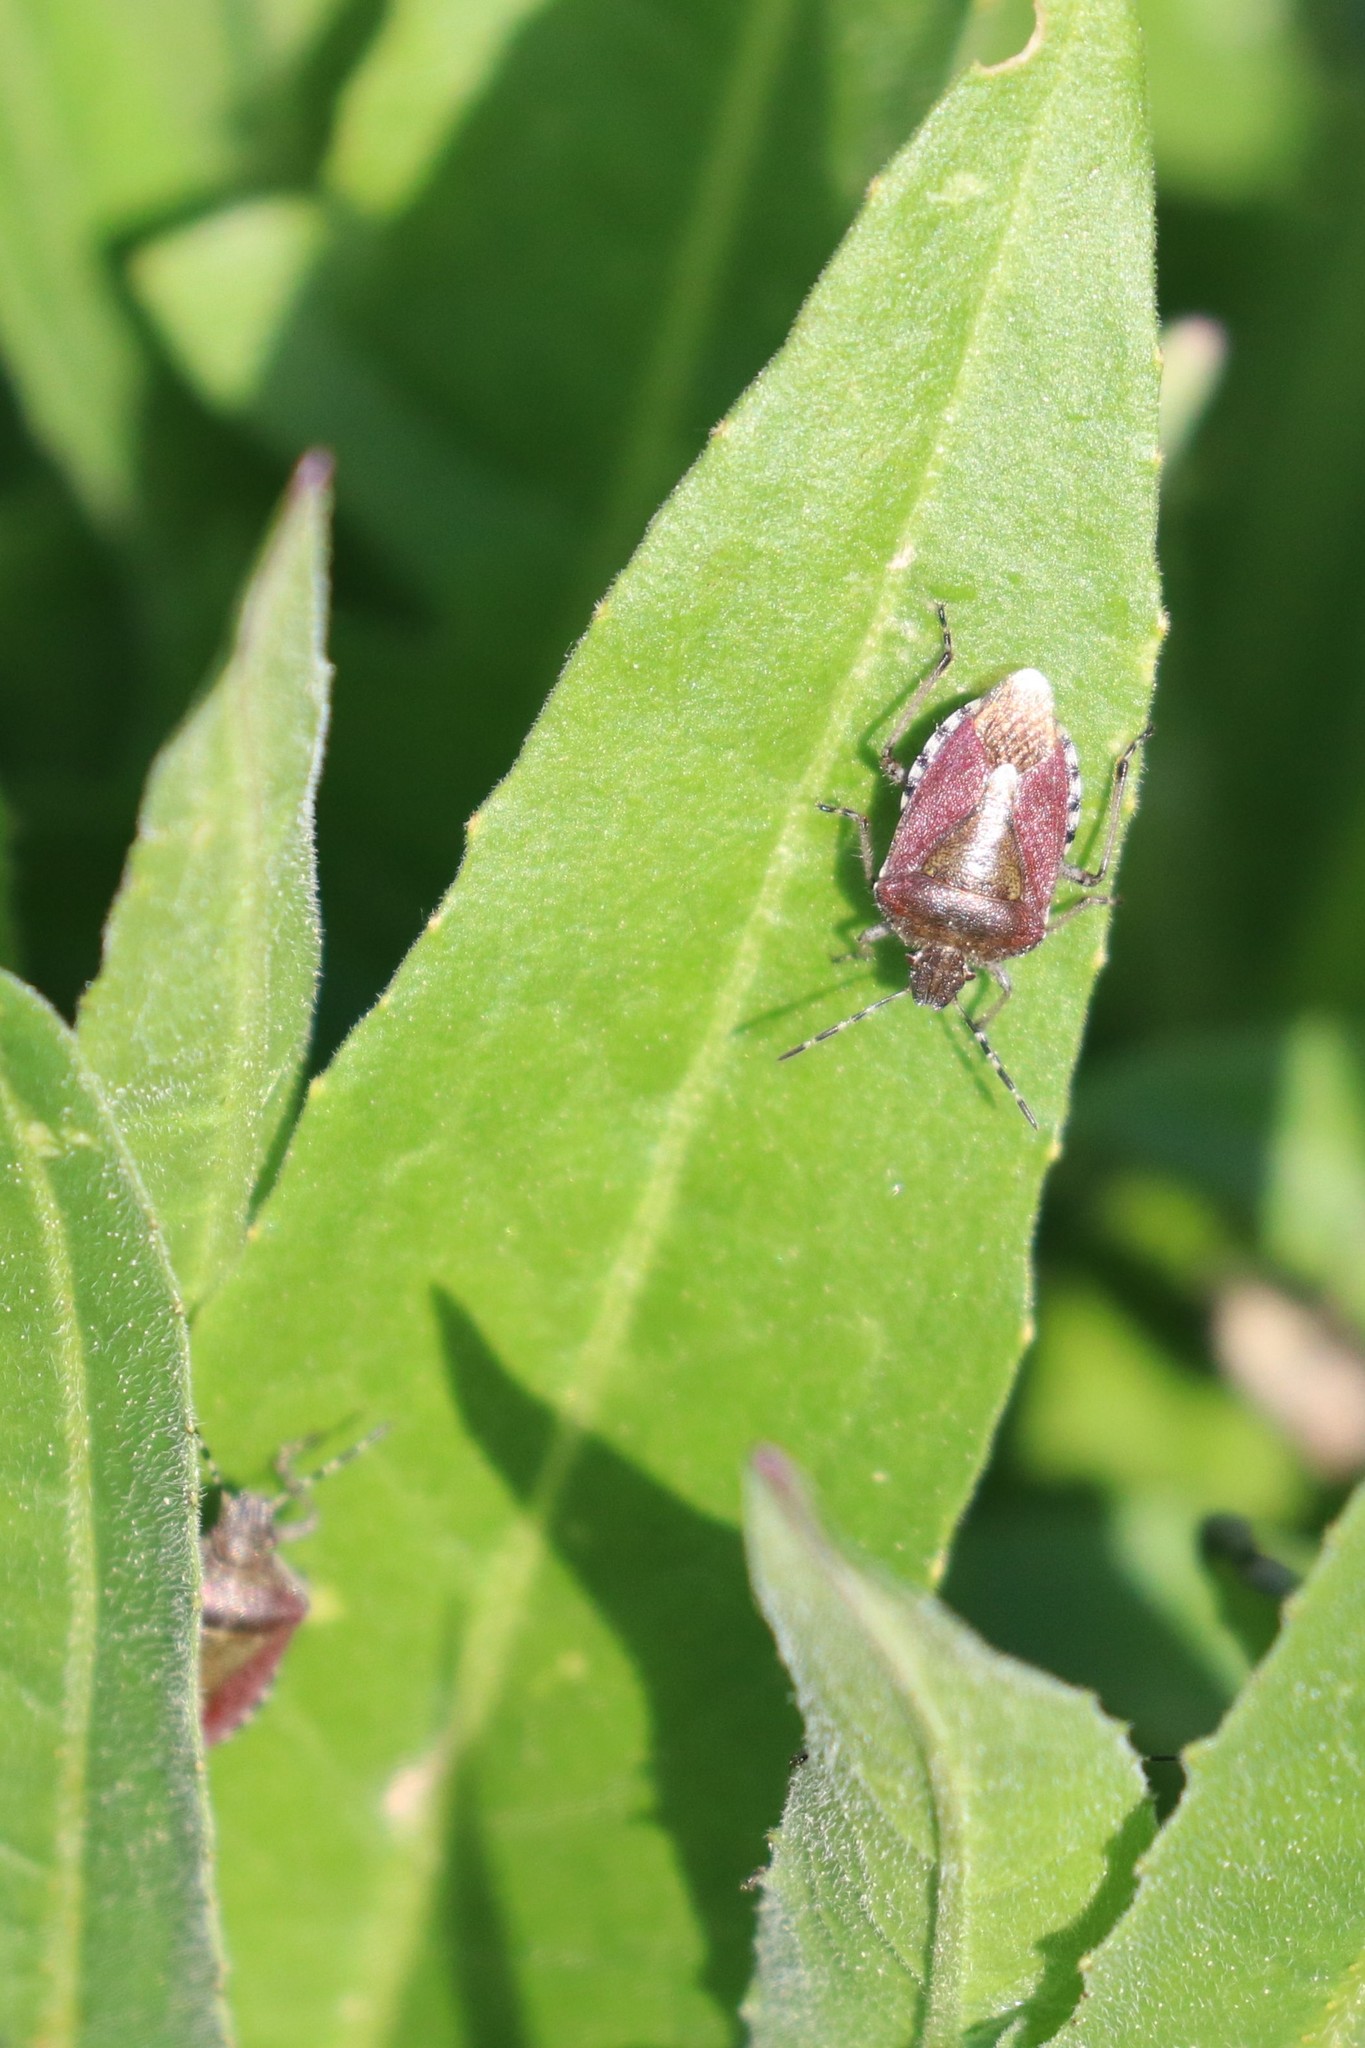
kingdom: Animalia
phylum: Arthropoda
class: Insecta
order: Hemiptera
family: Pentatomidae
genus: Dolycoris
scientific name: Dolycoris baccarum
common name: Sloe bug
